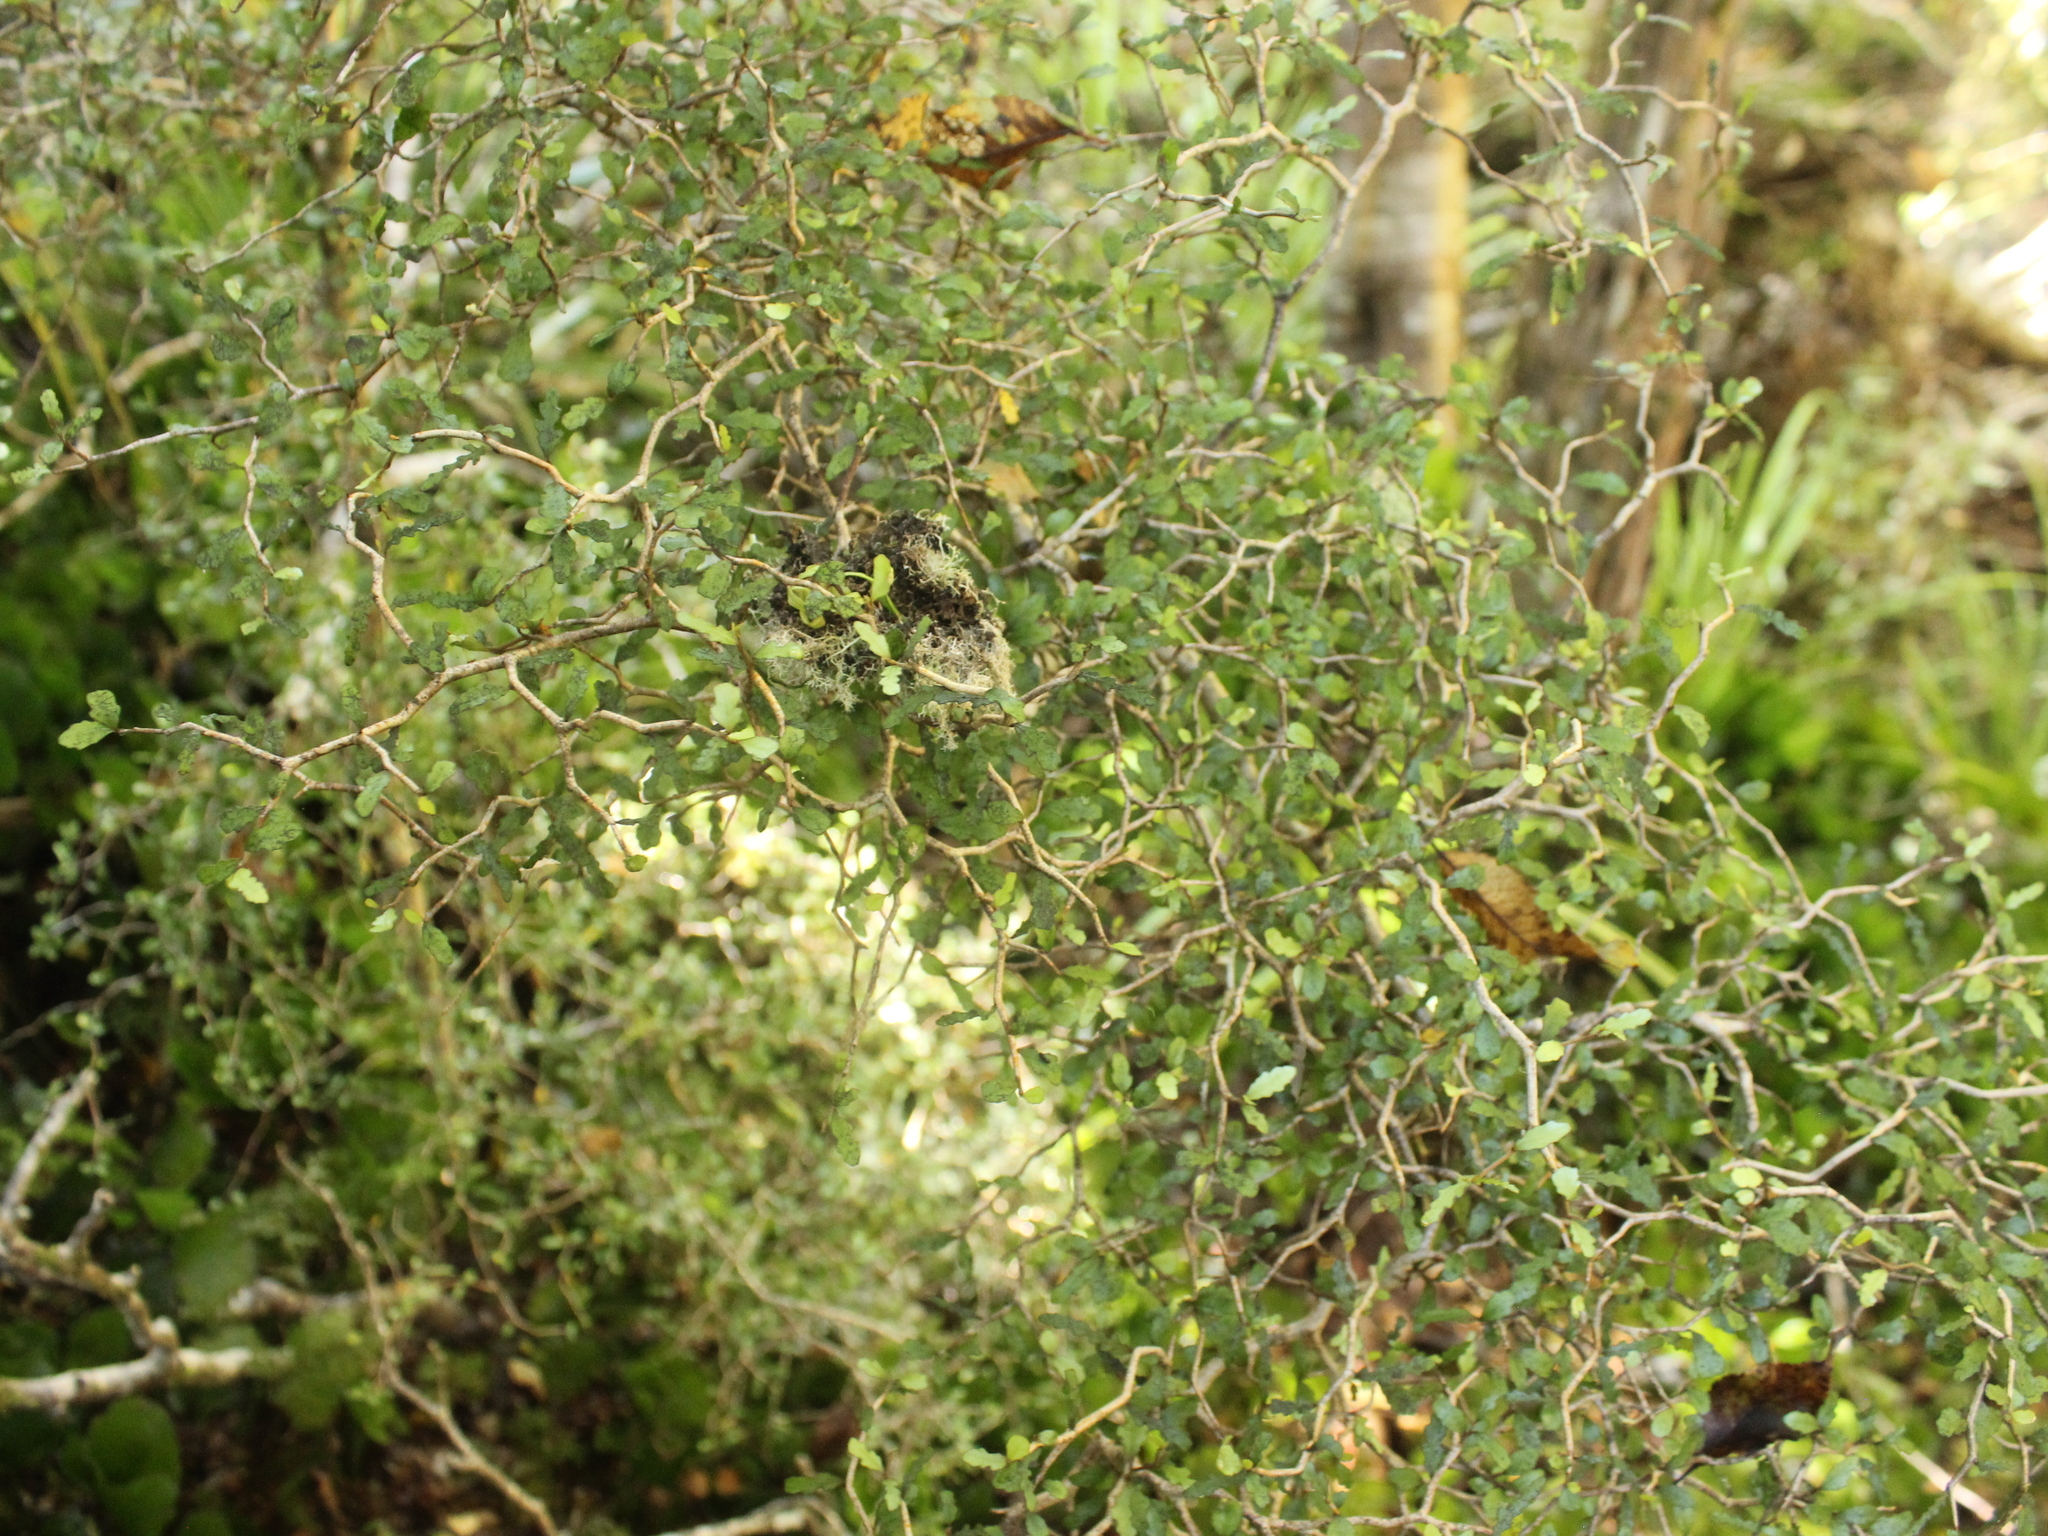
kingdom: Plantae
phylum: Tracheophyta
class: Magnoliopsida
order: Oxalidales
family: Elaeocarpaceae
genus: Elaeocarpus
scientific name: Elaeocarpus hookerianus
